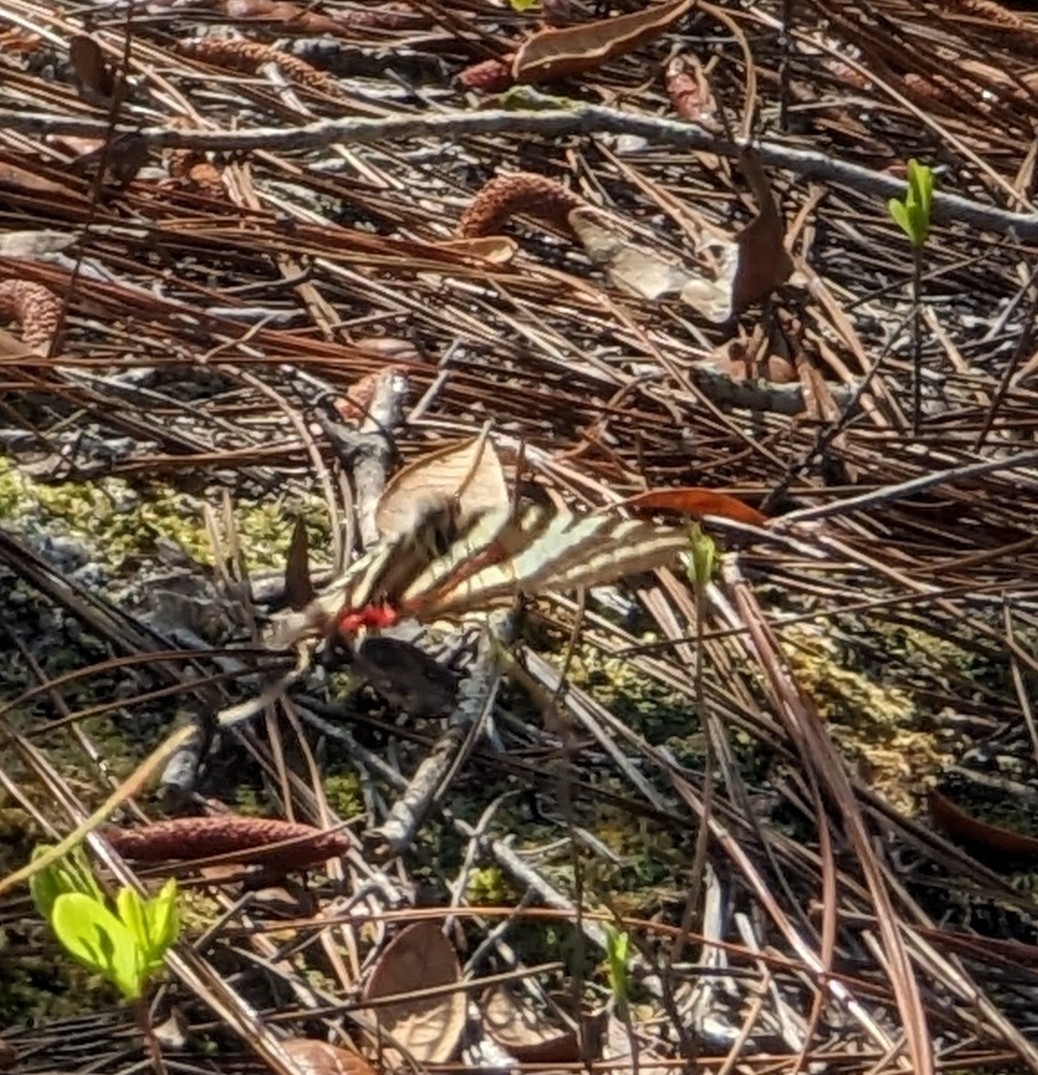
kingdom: Animalia
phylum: Arthropoda
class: Insecta
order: Lepidoptera
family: Papilionidae
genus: Protographium
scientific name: Protographium marcellus
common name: Zebra swallowtail
